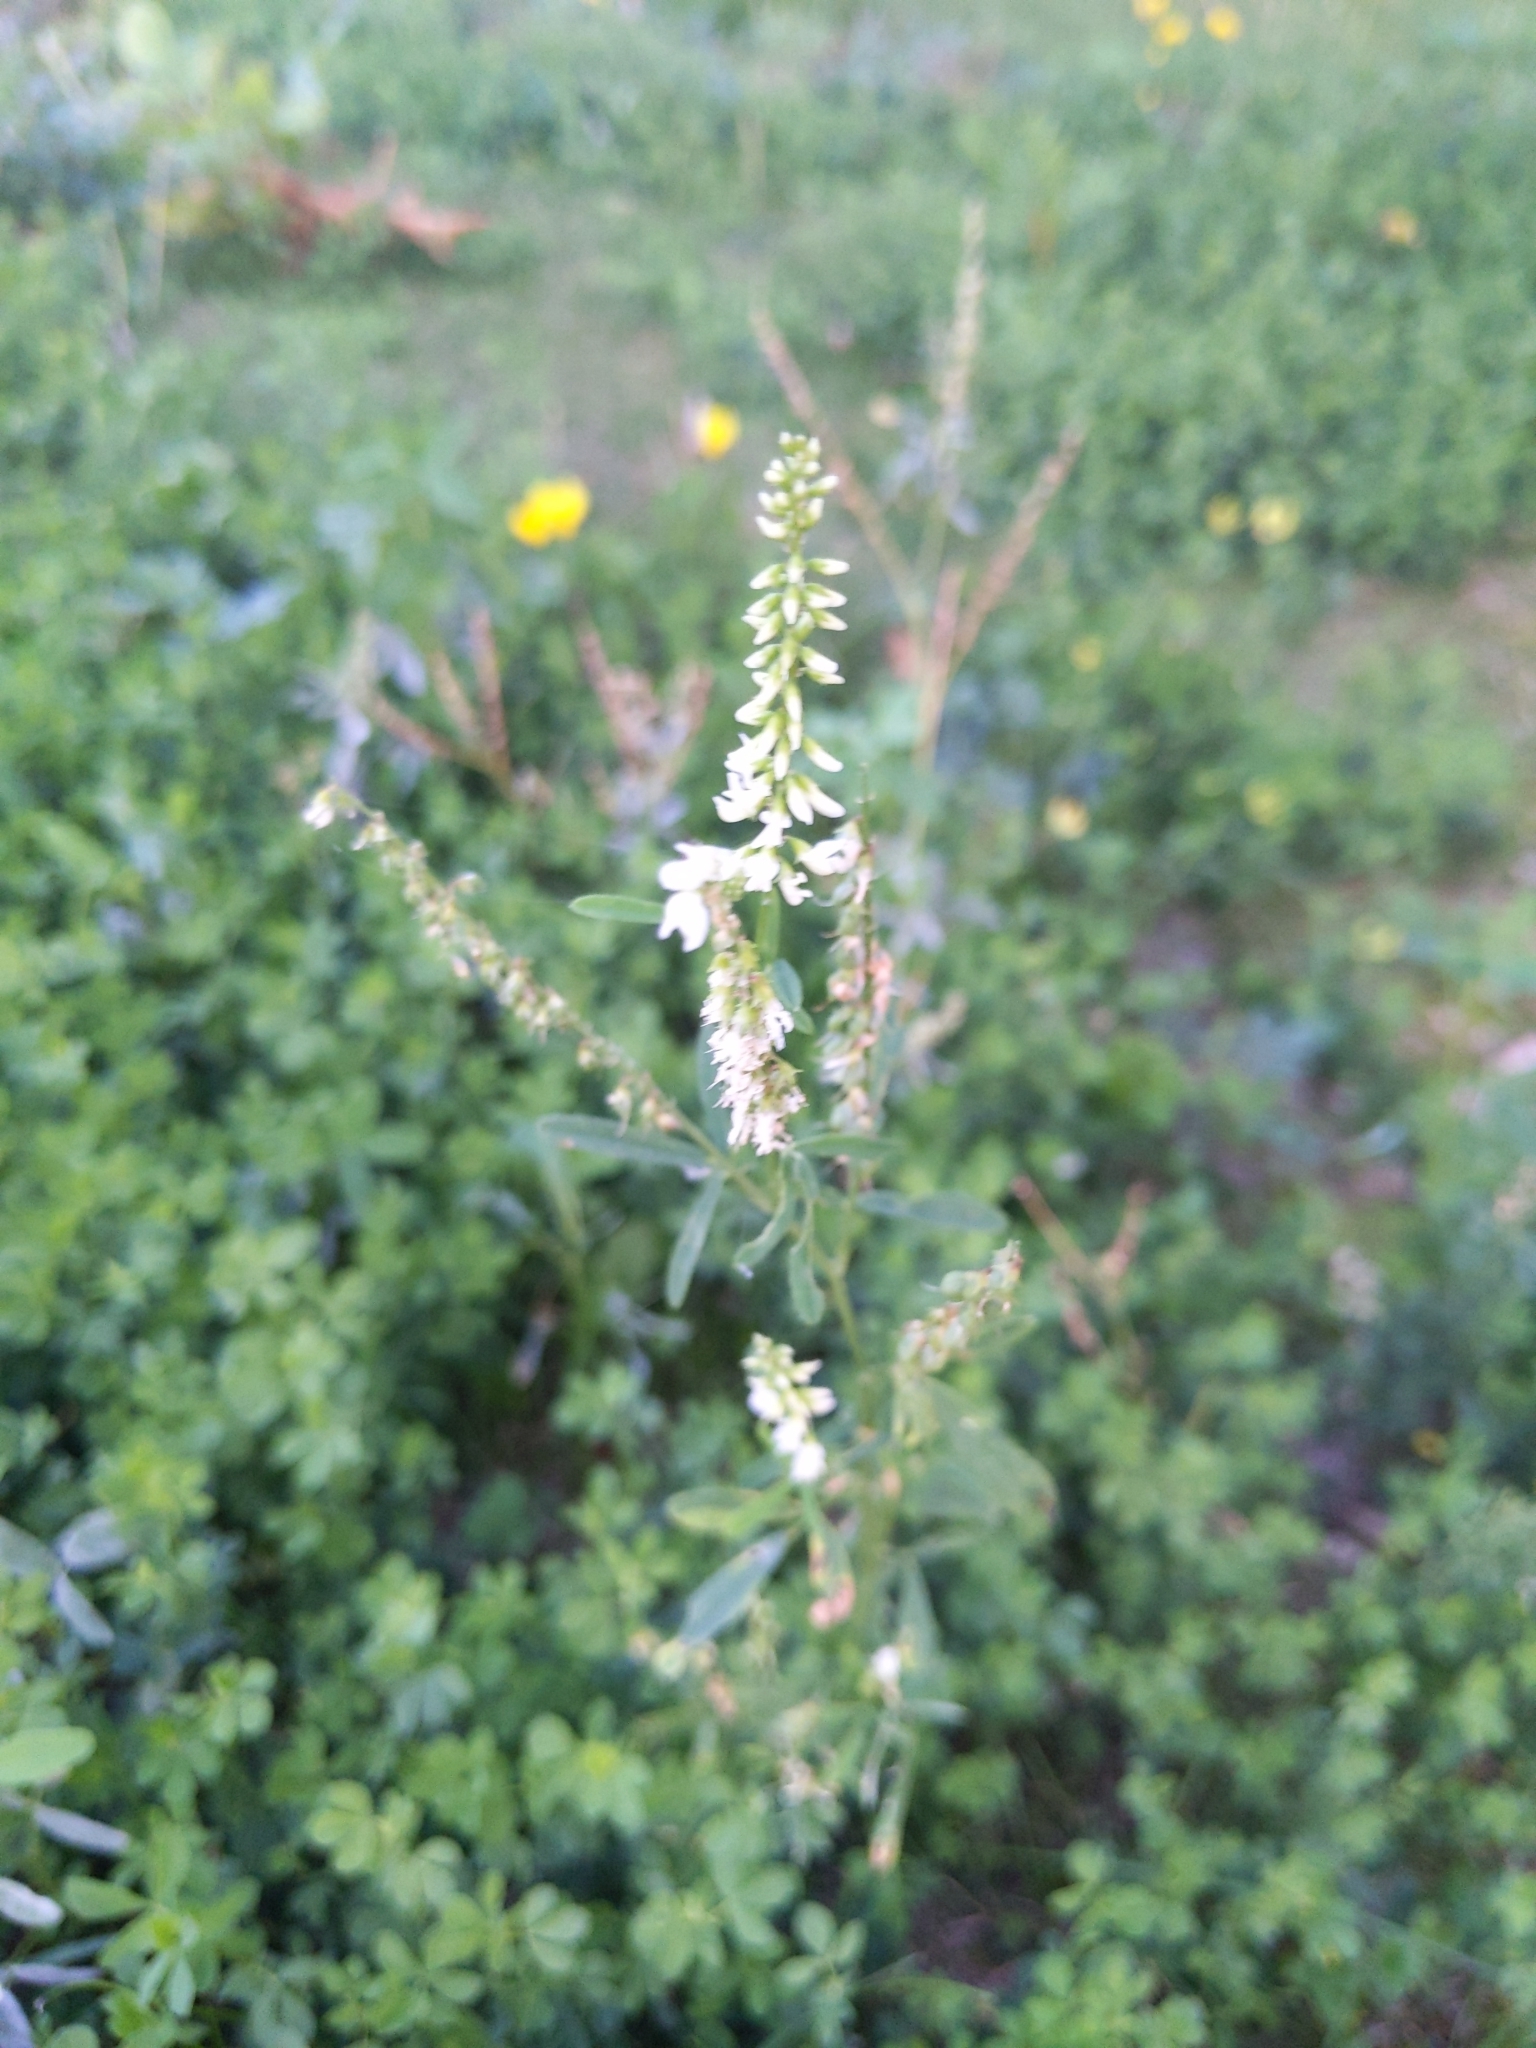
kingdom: Plantae
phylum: Tracheophyta
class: Magnoliopsida
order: Fabales
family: Fabaceae
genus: Melilotus
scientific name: Melilotus albus
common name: White melilot
